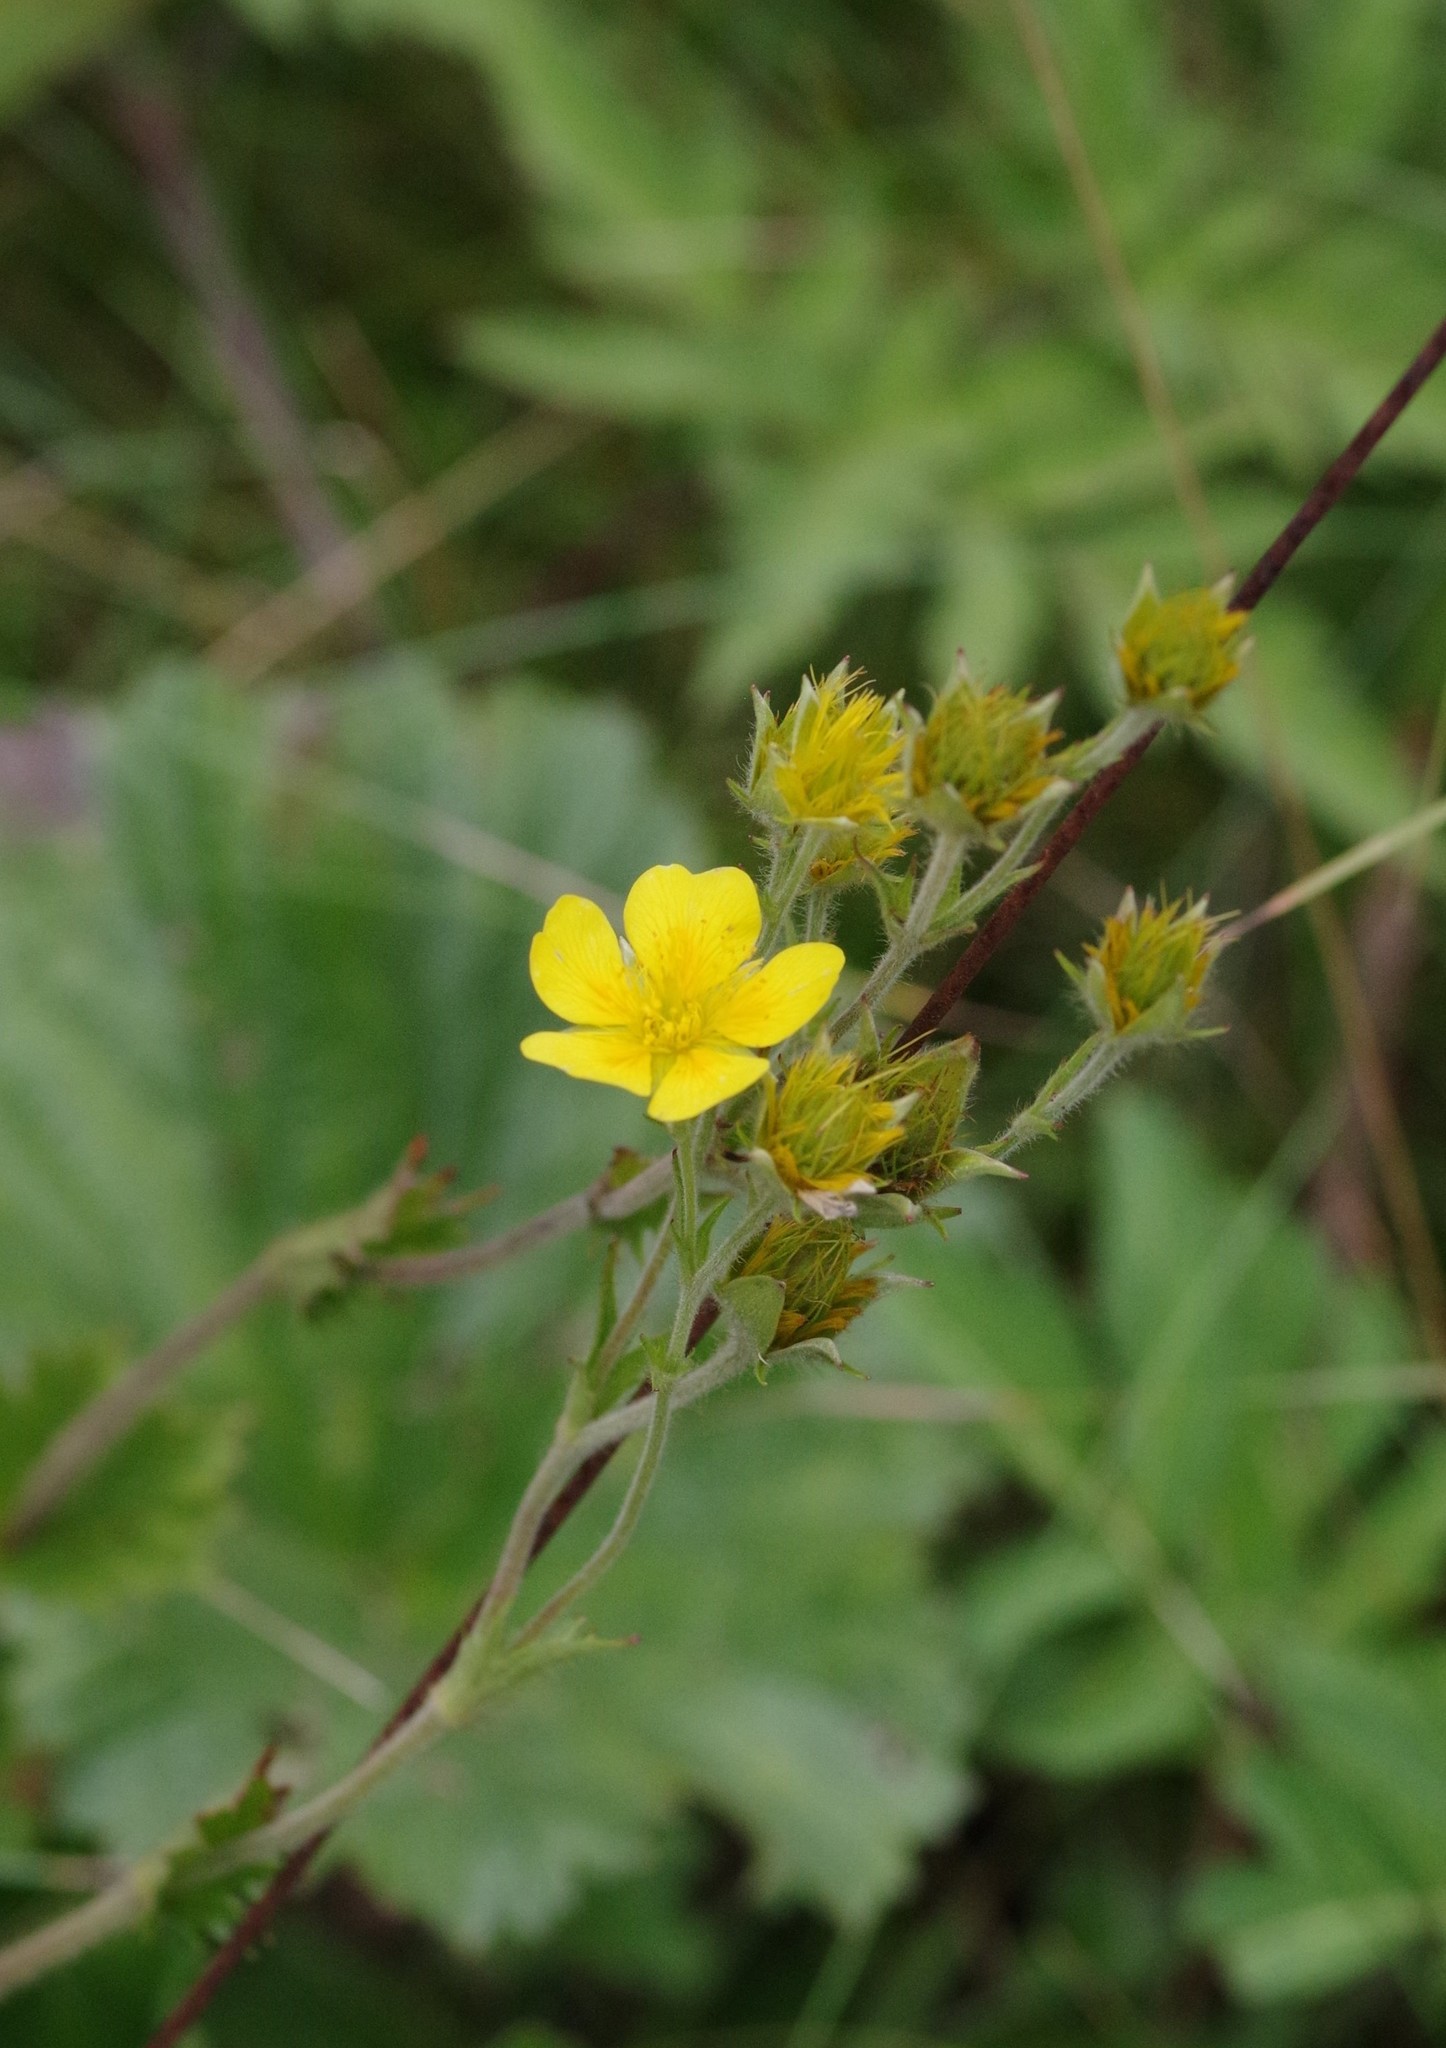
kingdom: Plantae
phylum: Tracheophyta
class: Magnoliopsida
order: Rosales
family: Rosaceae
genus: Geum
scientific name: Geum radiatum
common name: Spreaded avens
